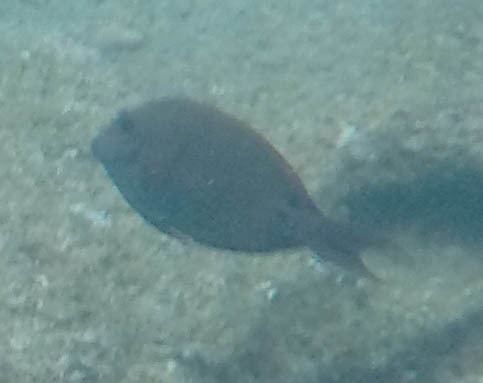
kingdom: Animalia
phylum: Chordata
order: Perciformes
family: Acanthuridae
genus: Acanthurus
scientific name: Acanthurus nigrofuscus
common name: Blackspot surgeonfish
